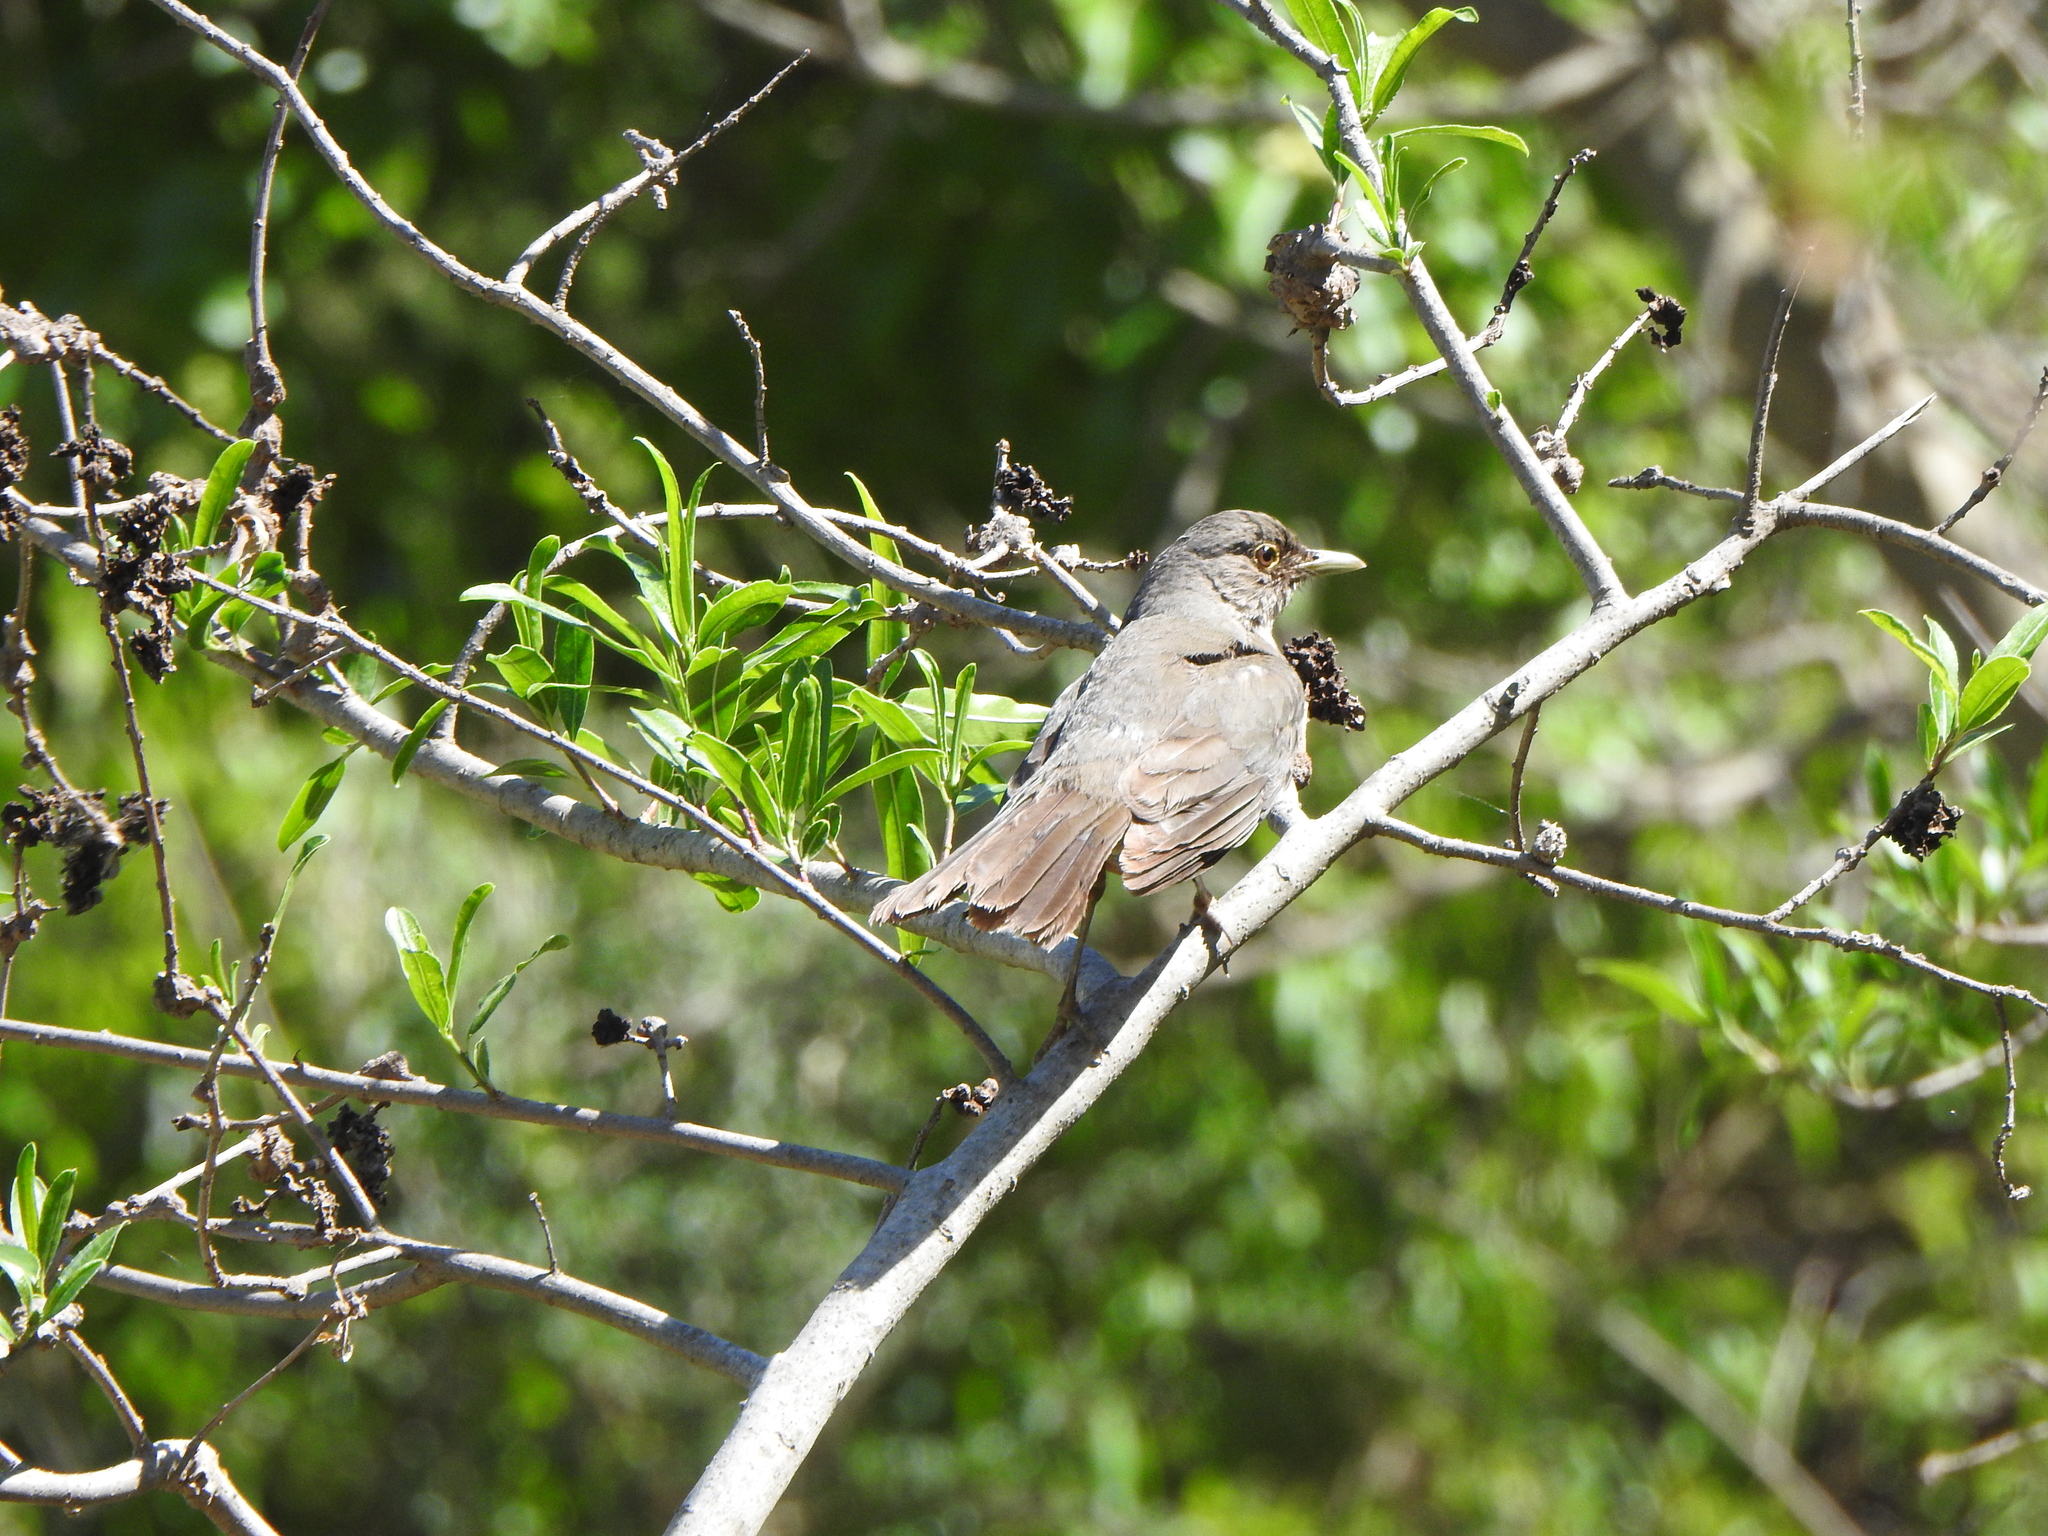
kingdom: Animalia
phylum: Chordata
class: Aves
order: Passeriformes
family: Turdidae
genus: Turdus
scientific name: Turdus amaurochalinus
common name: Creamy-bellied thrush
